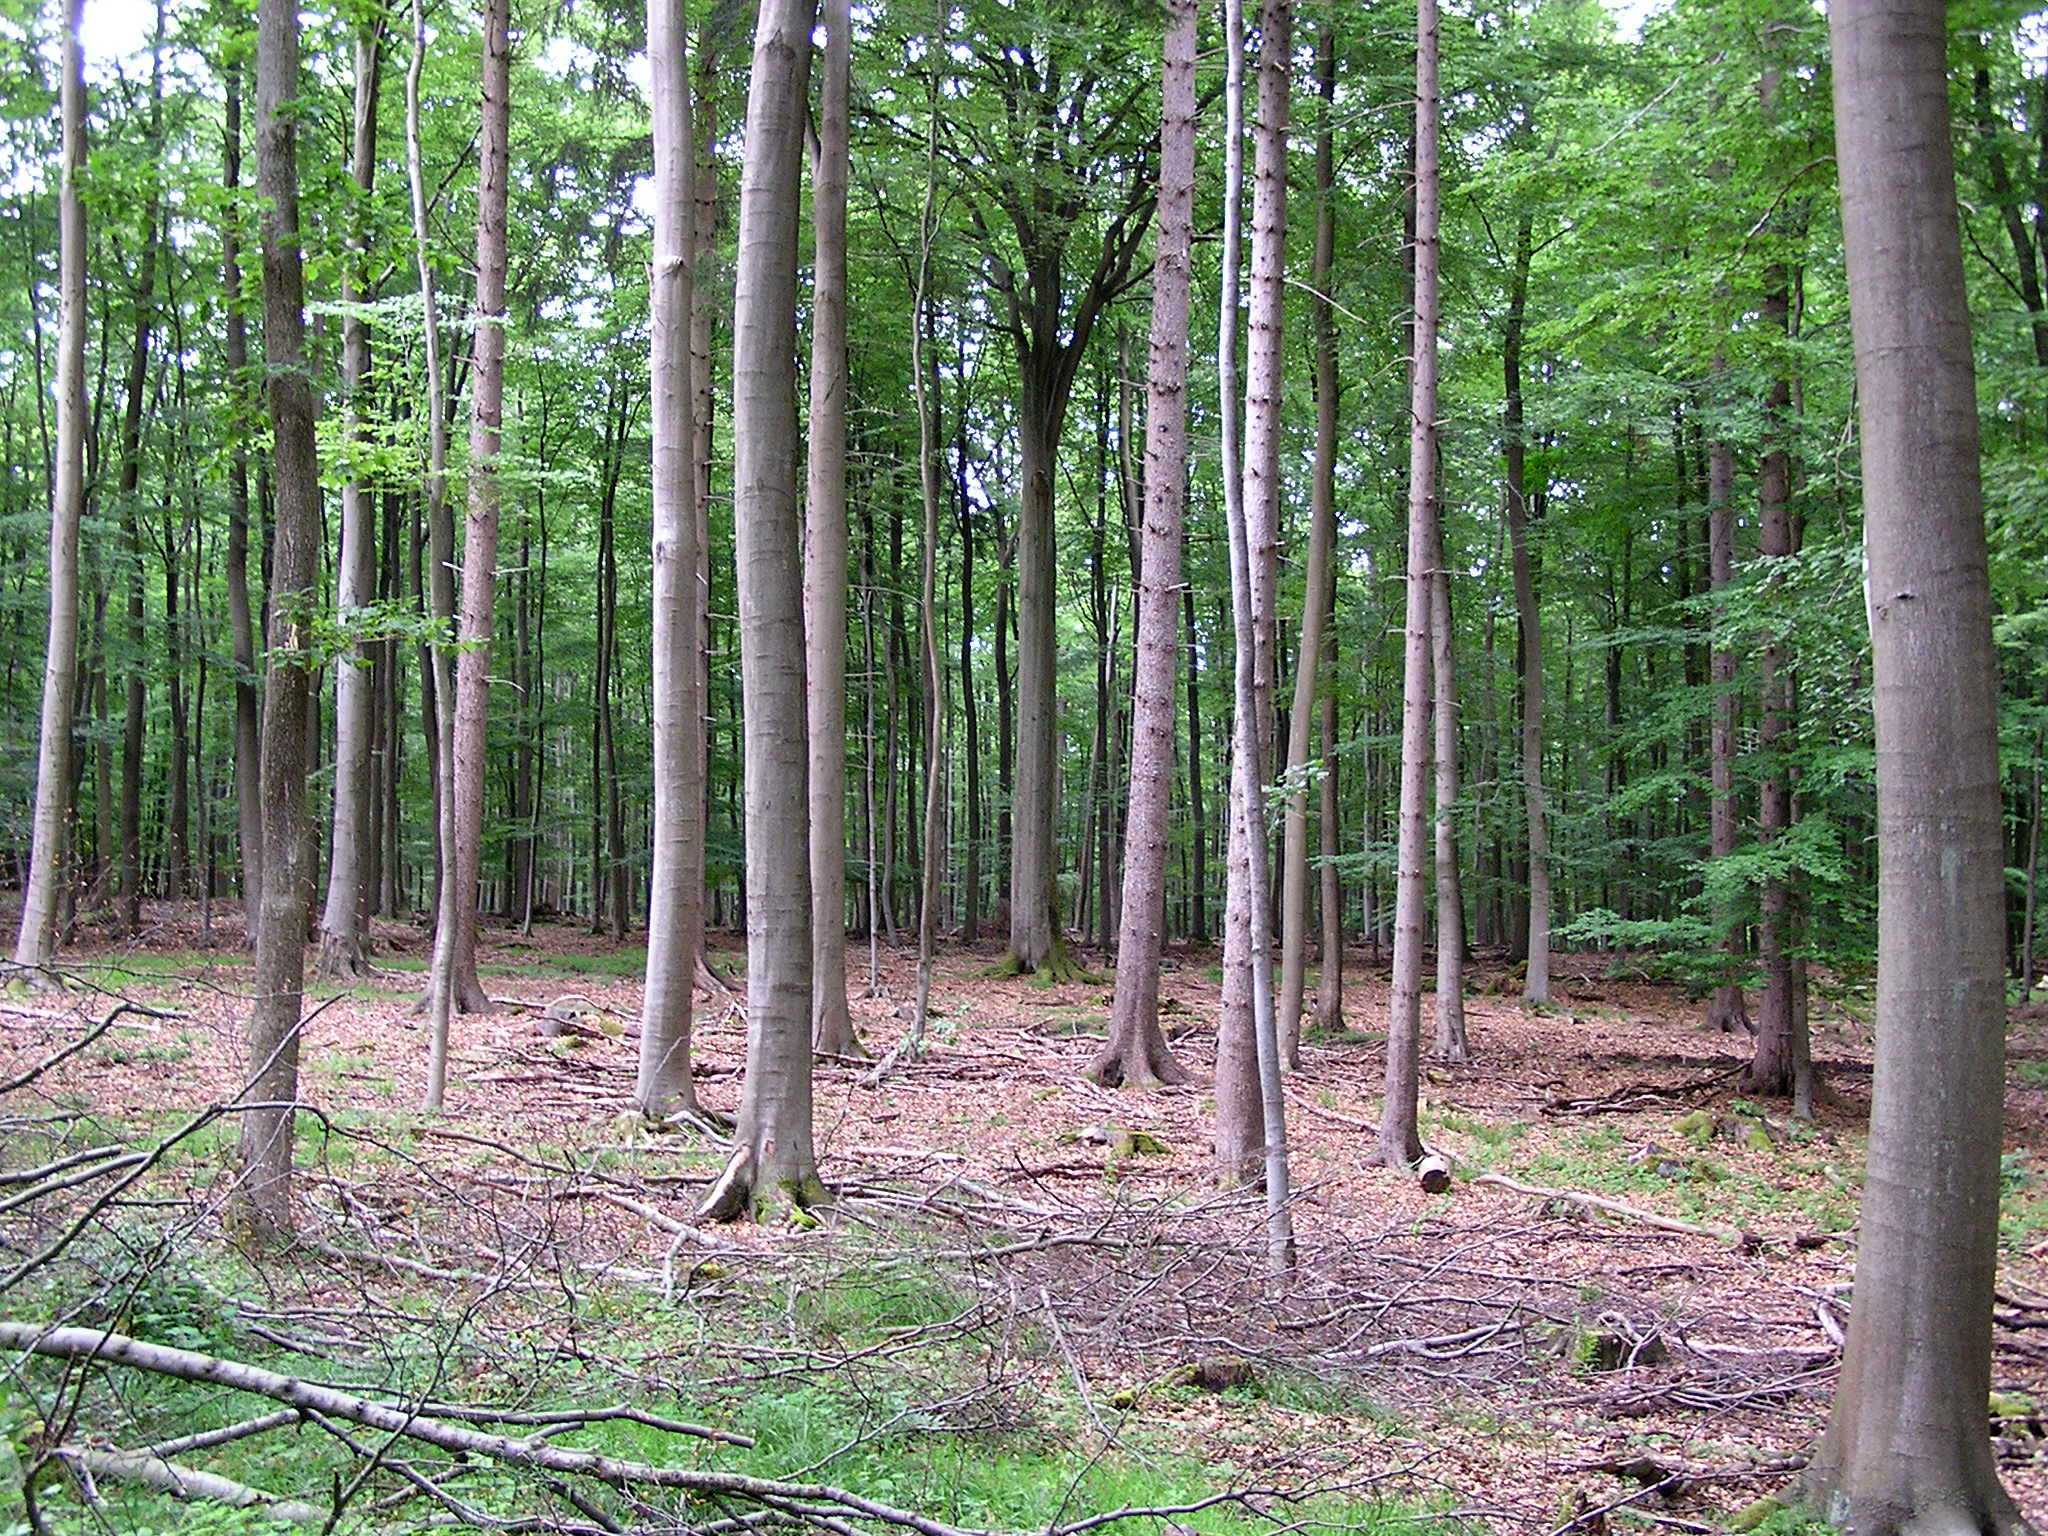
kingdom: Plantae
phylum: Tracheophyta
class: Magnoliopsida
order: Fagales
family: Fagaceae
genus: Fagus
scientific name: Fagus sylvatica
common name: Beech
